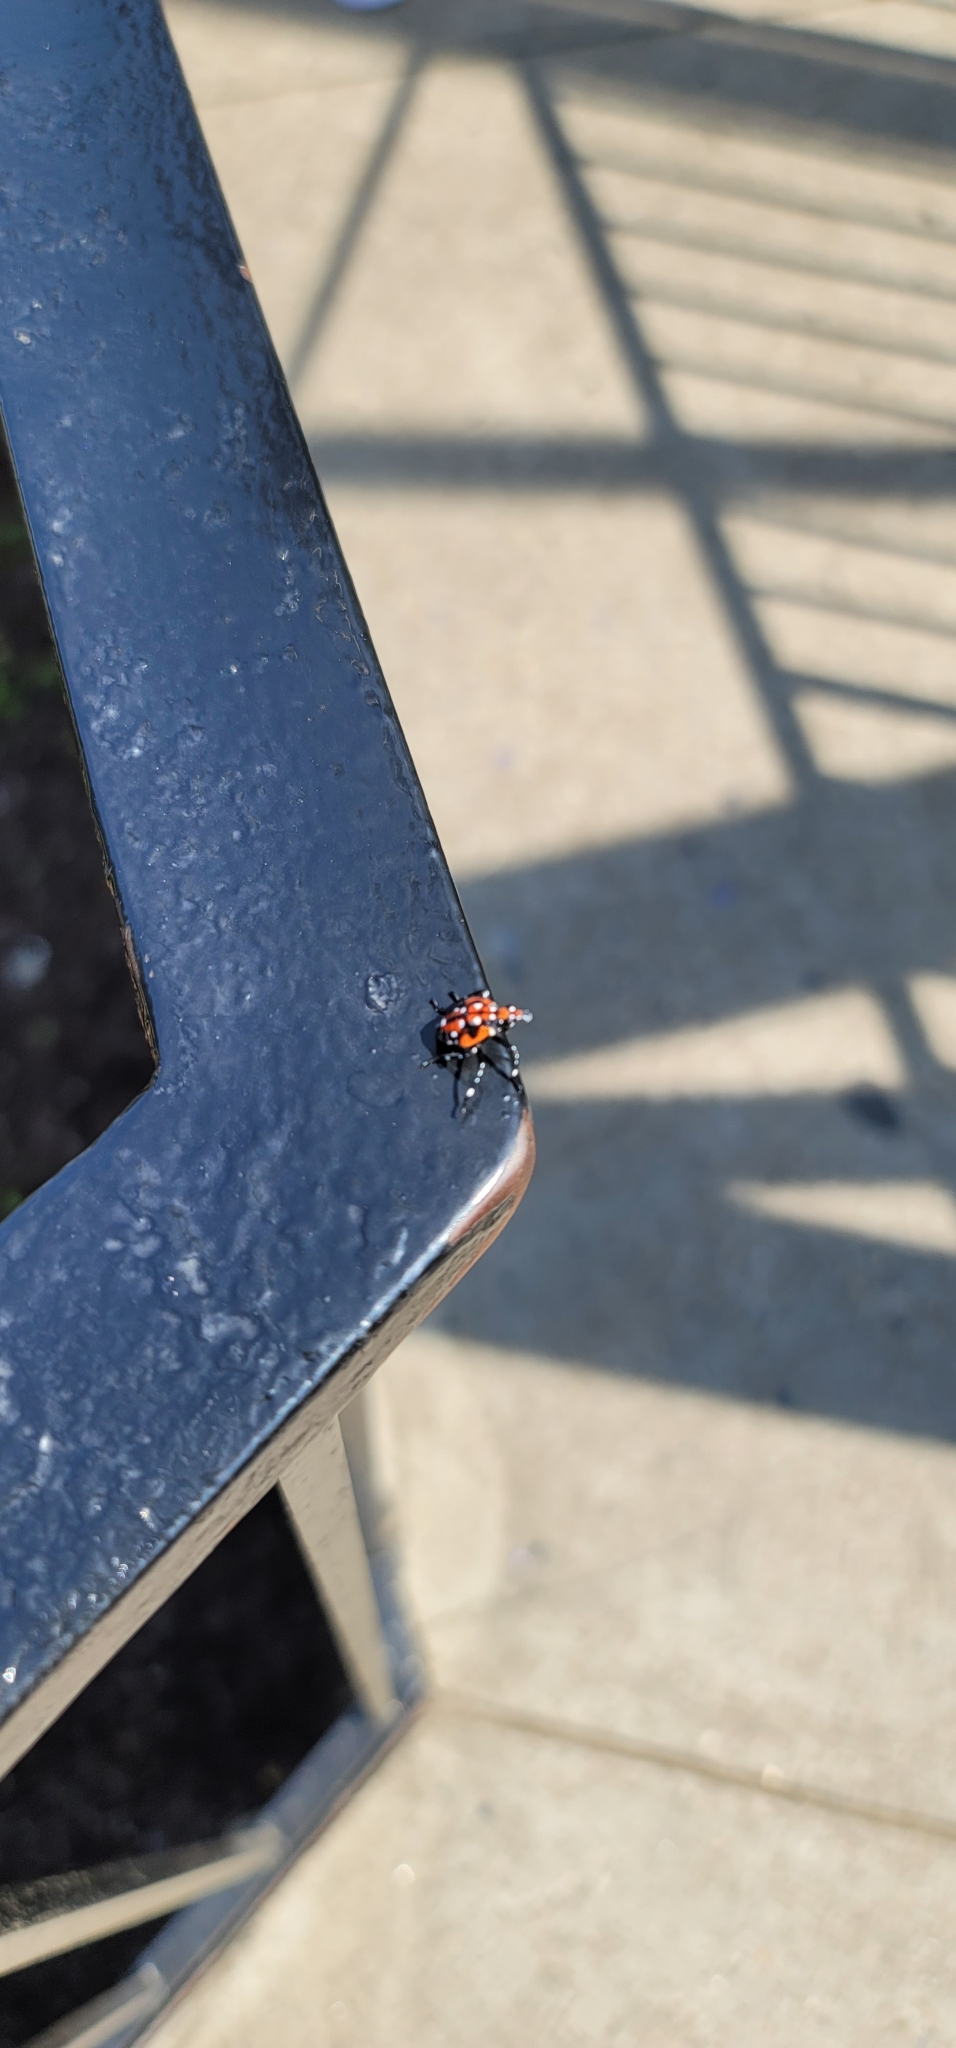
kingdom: Animalia
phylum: Arthropoda
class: Insecta
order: Hemiptera
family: Fulgoridae
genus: Lycorma
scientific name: Lycorma delicatula
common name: Spotted lanternfly
